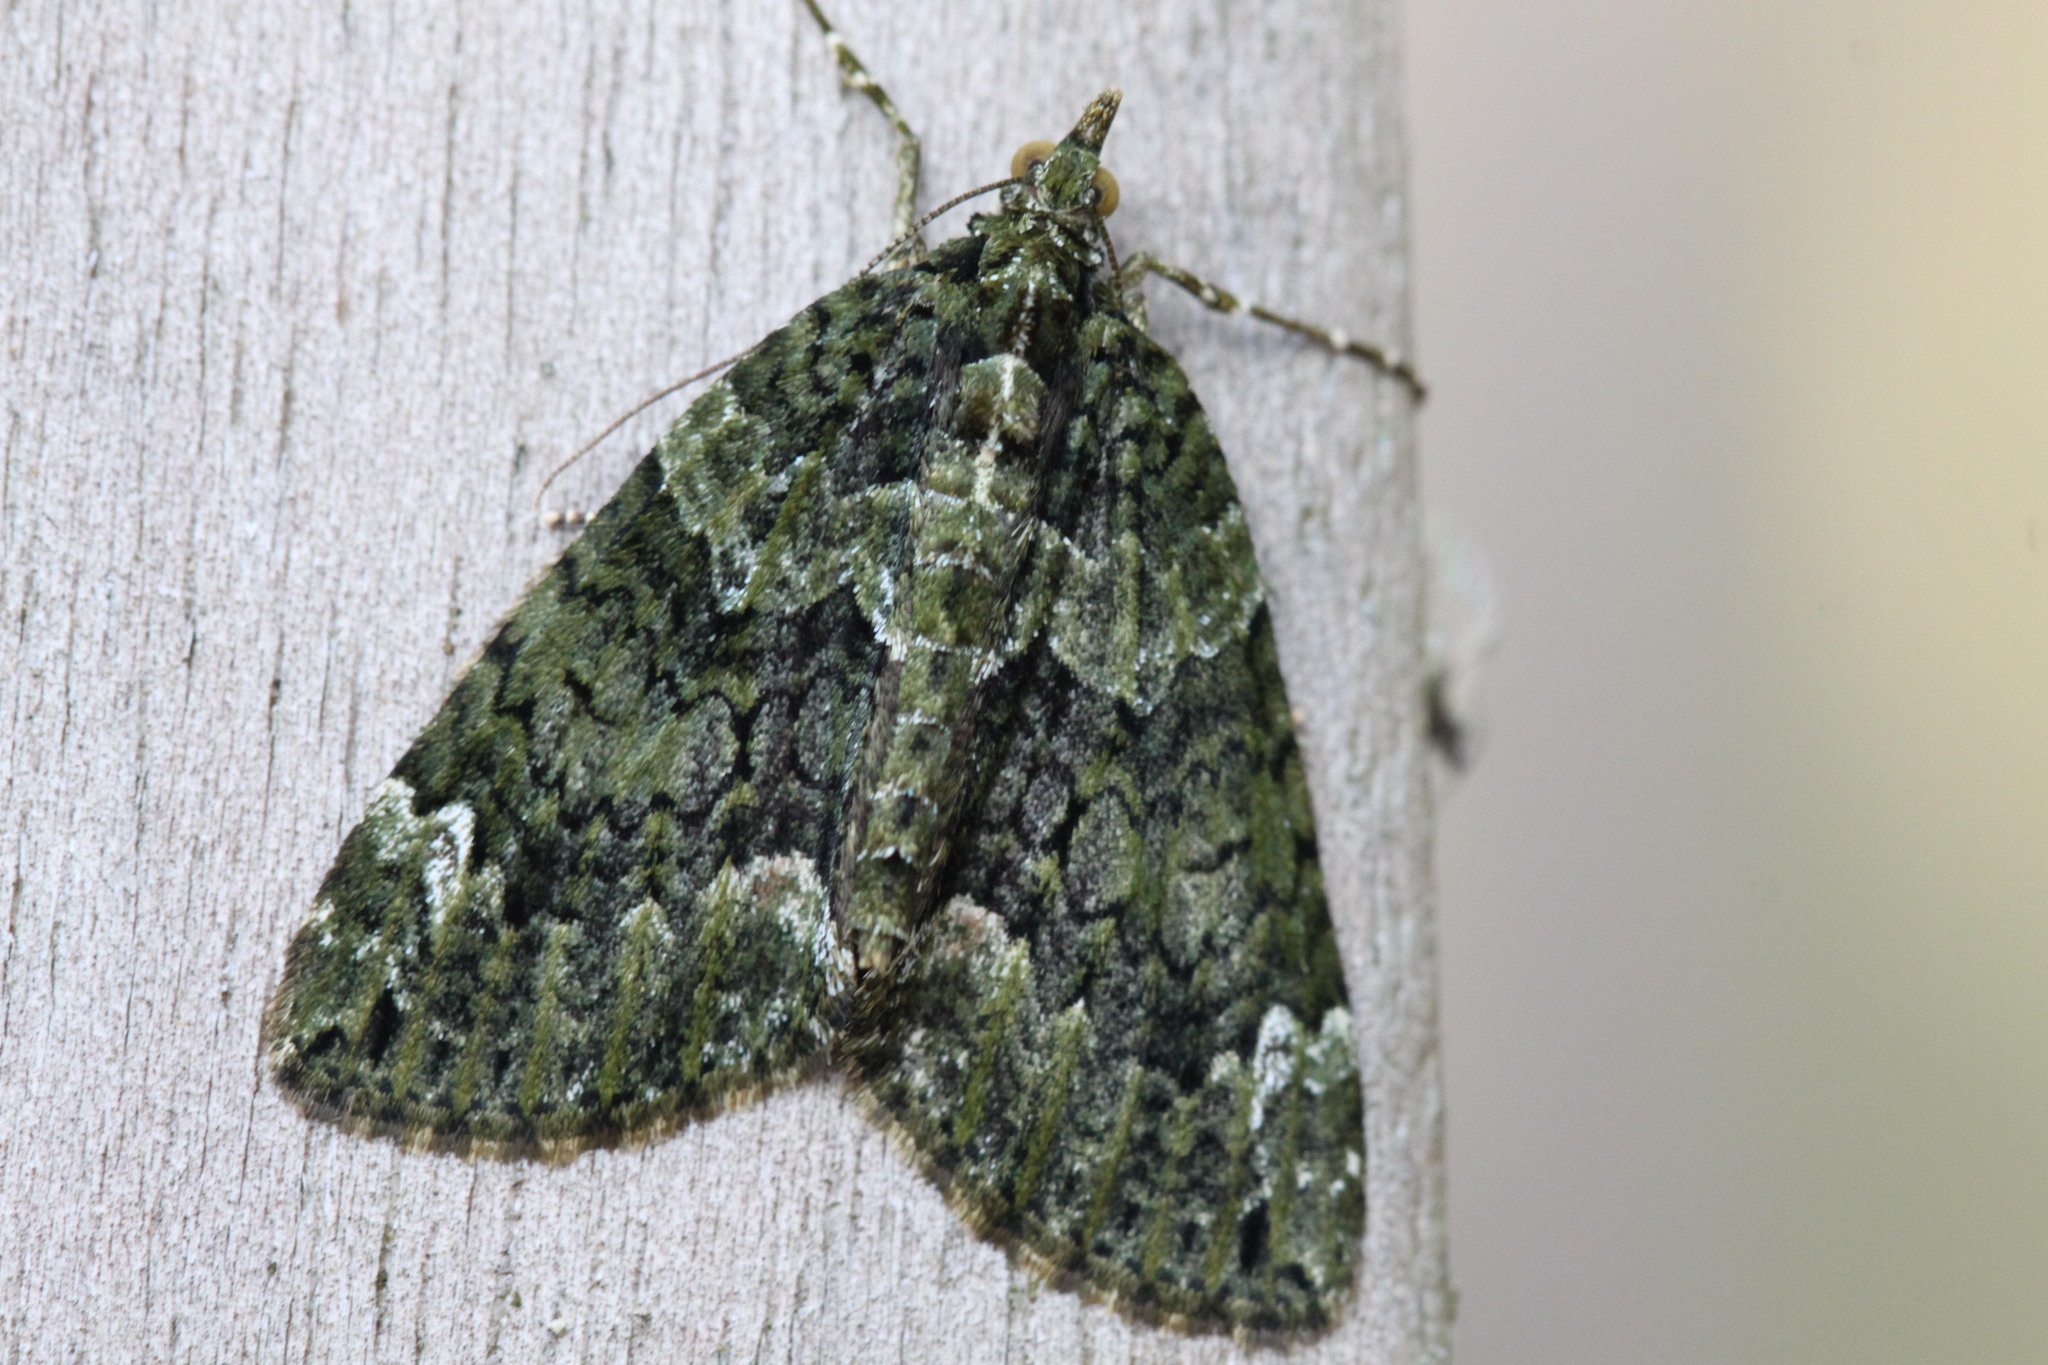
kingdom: Animalia
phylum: Arthropoda
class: Insecta
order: Lepidoptera
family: Geometridae
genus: Chloroclysta
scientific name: Chloroclysta siterata
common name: Red-green carpet
